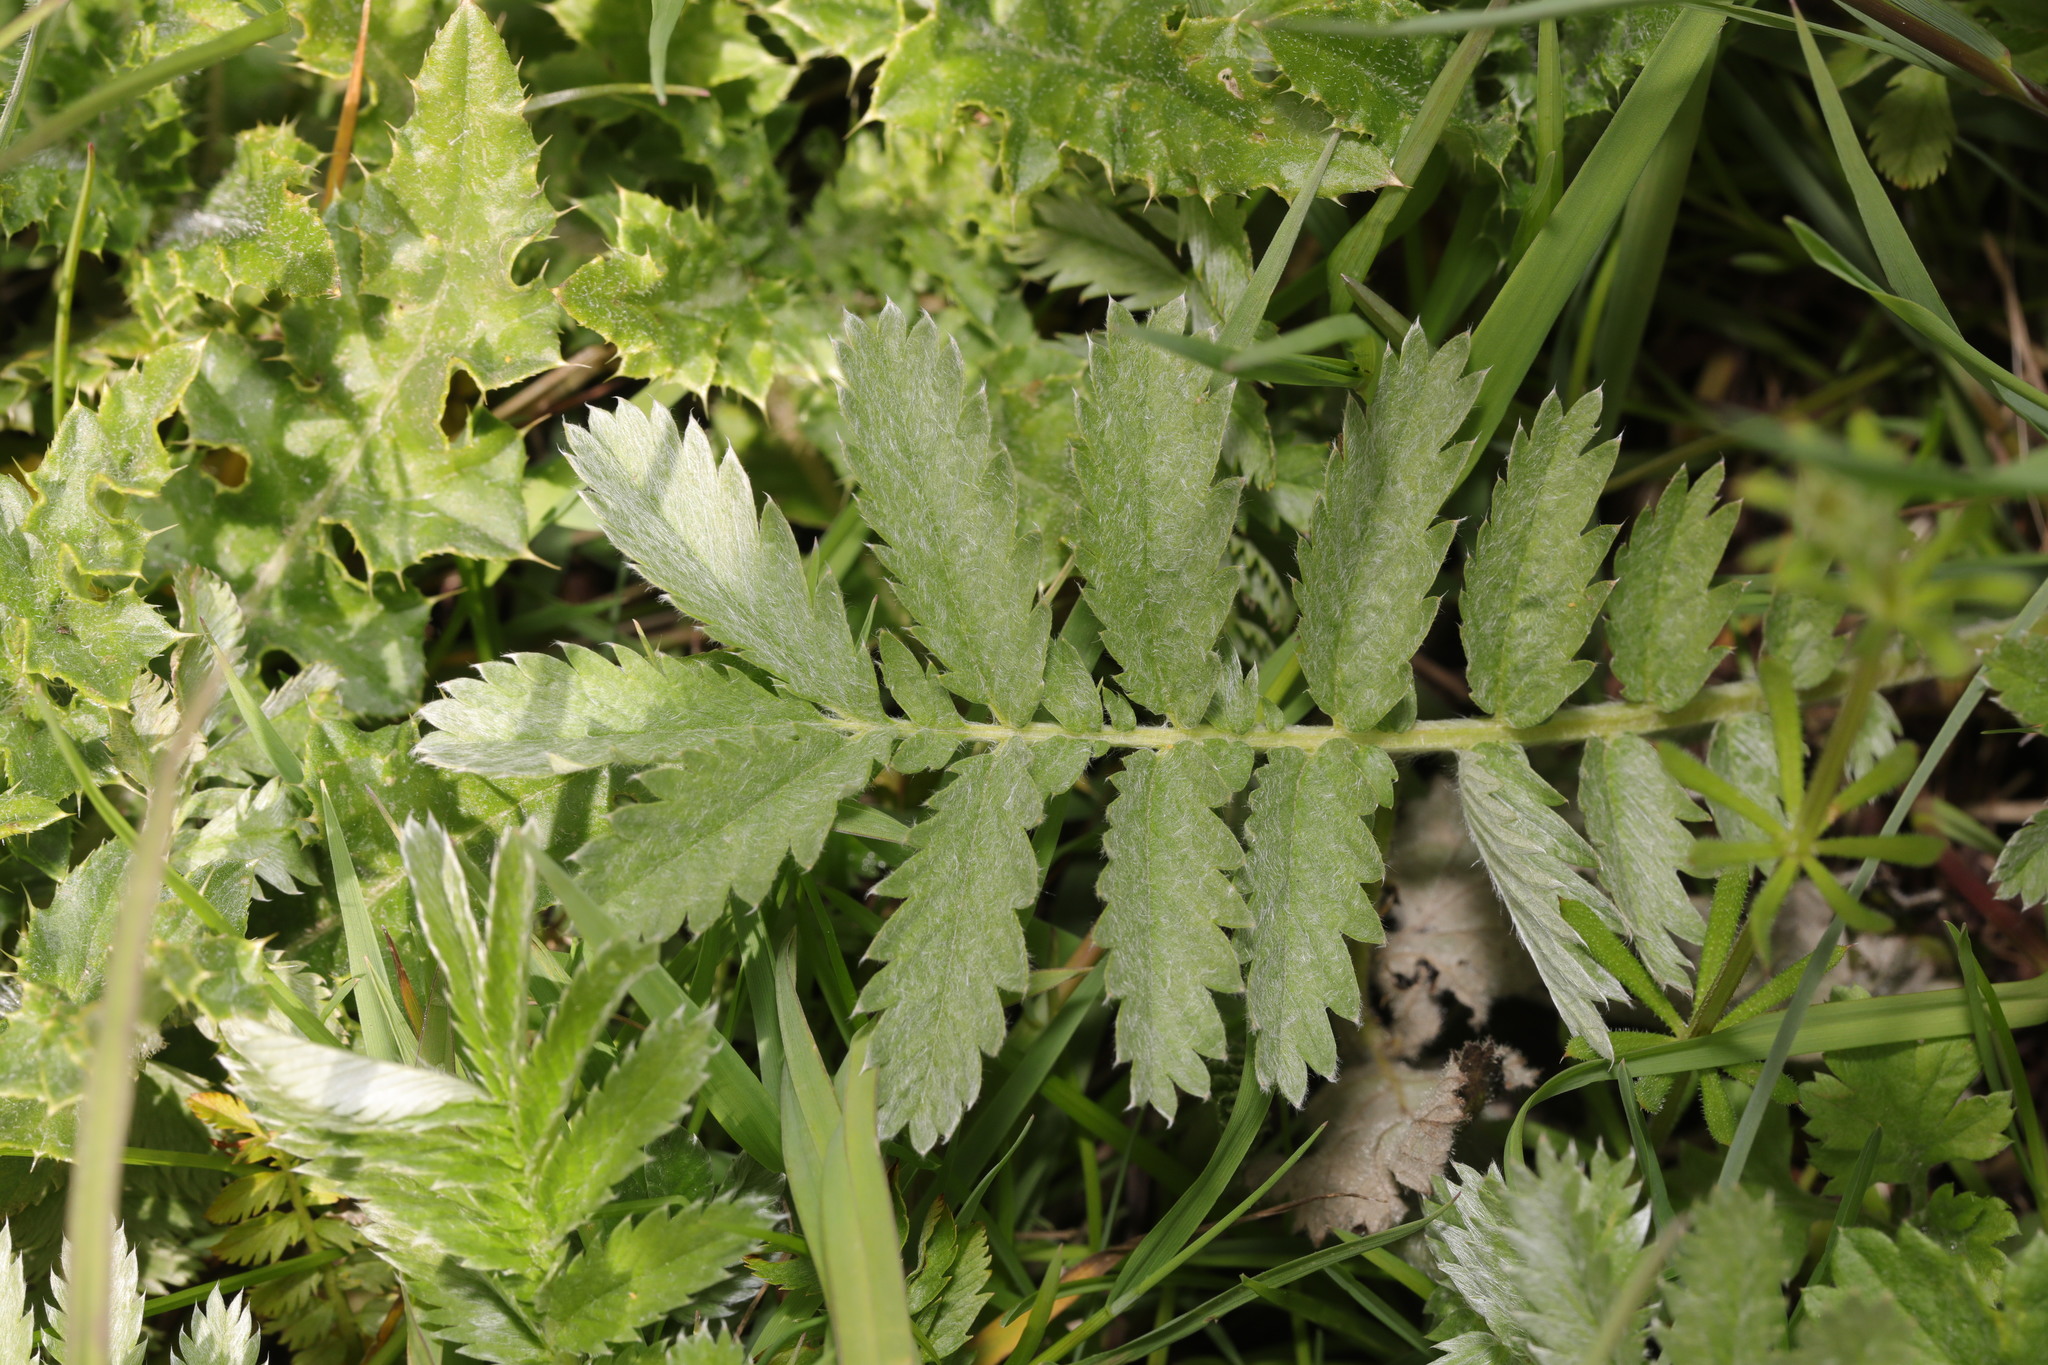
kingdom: Plantae
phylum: Tracheophyta
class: Magnoliopsida
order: Rosales
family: Rosaceae
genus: Argentina
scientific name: Argentina anserina
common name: Common silverweed
